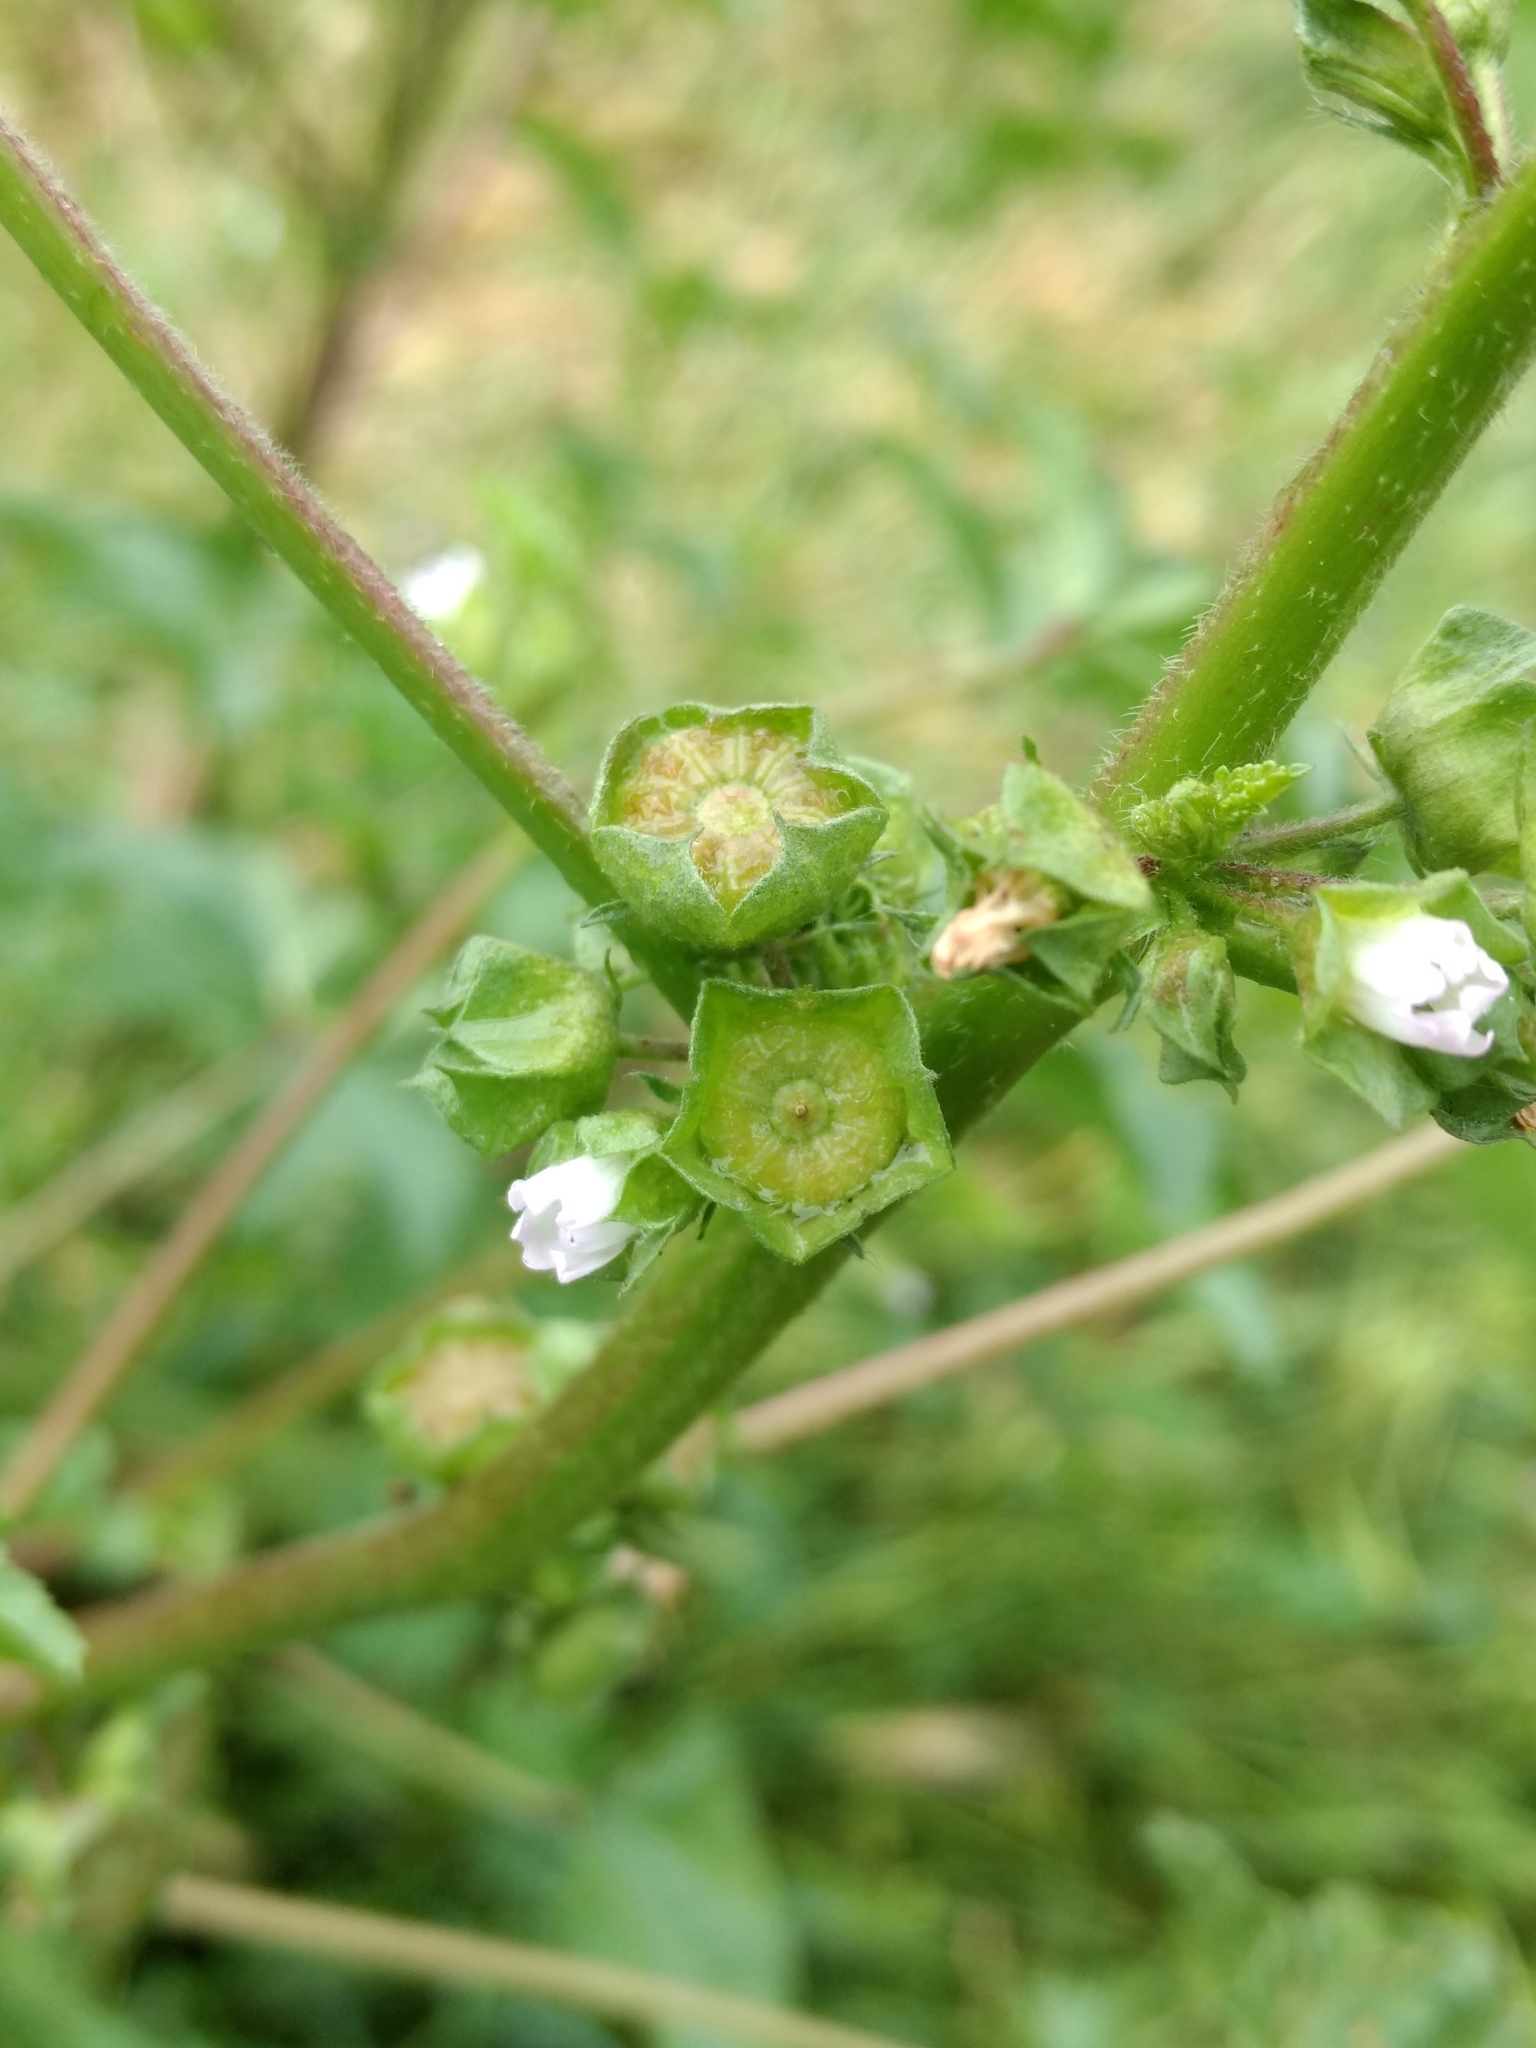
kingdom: Plantae
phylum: Tracheophyta
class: Magnoliopsida
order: Malvales
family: Malvaceae
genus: Malva
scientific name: Malva parviflora
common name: Least mallow
